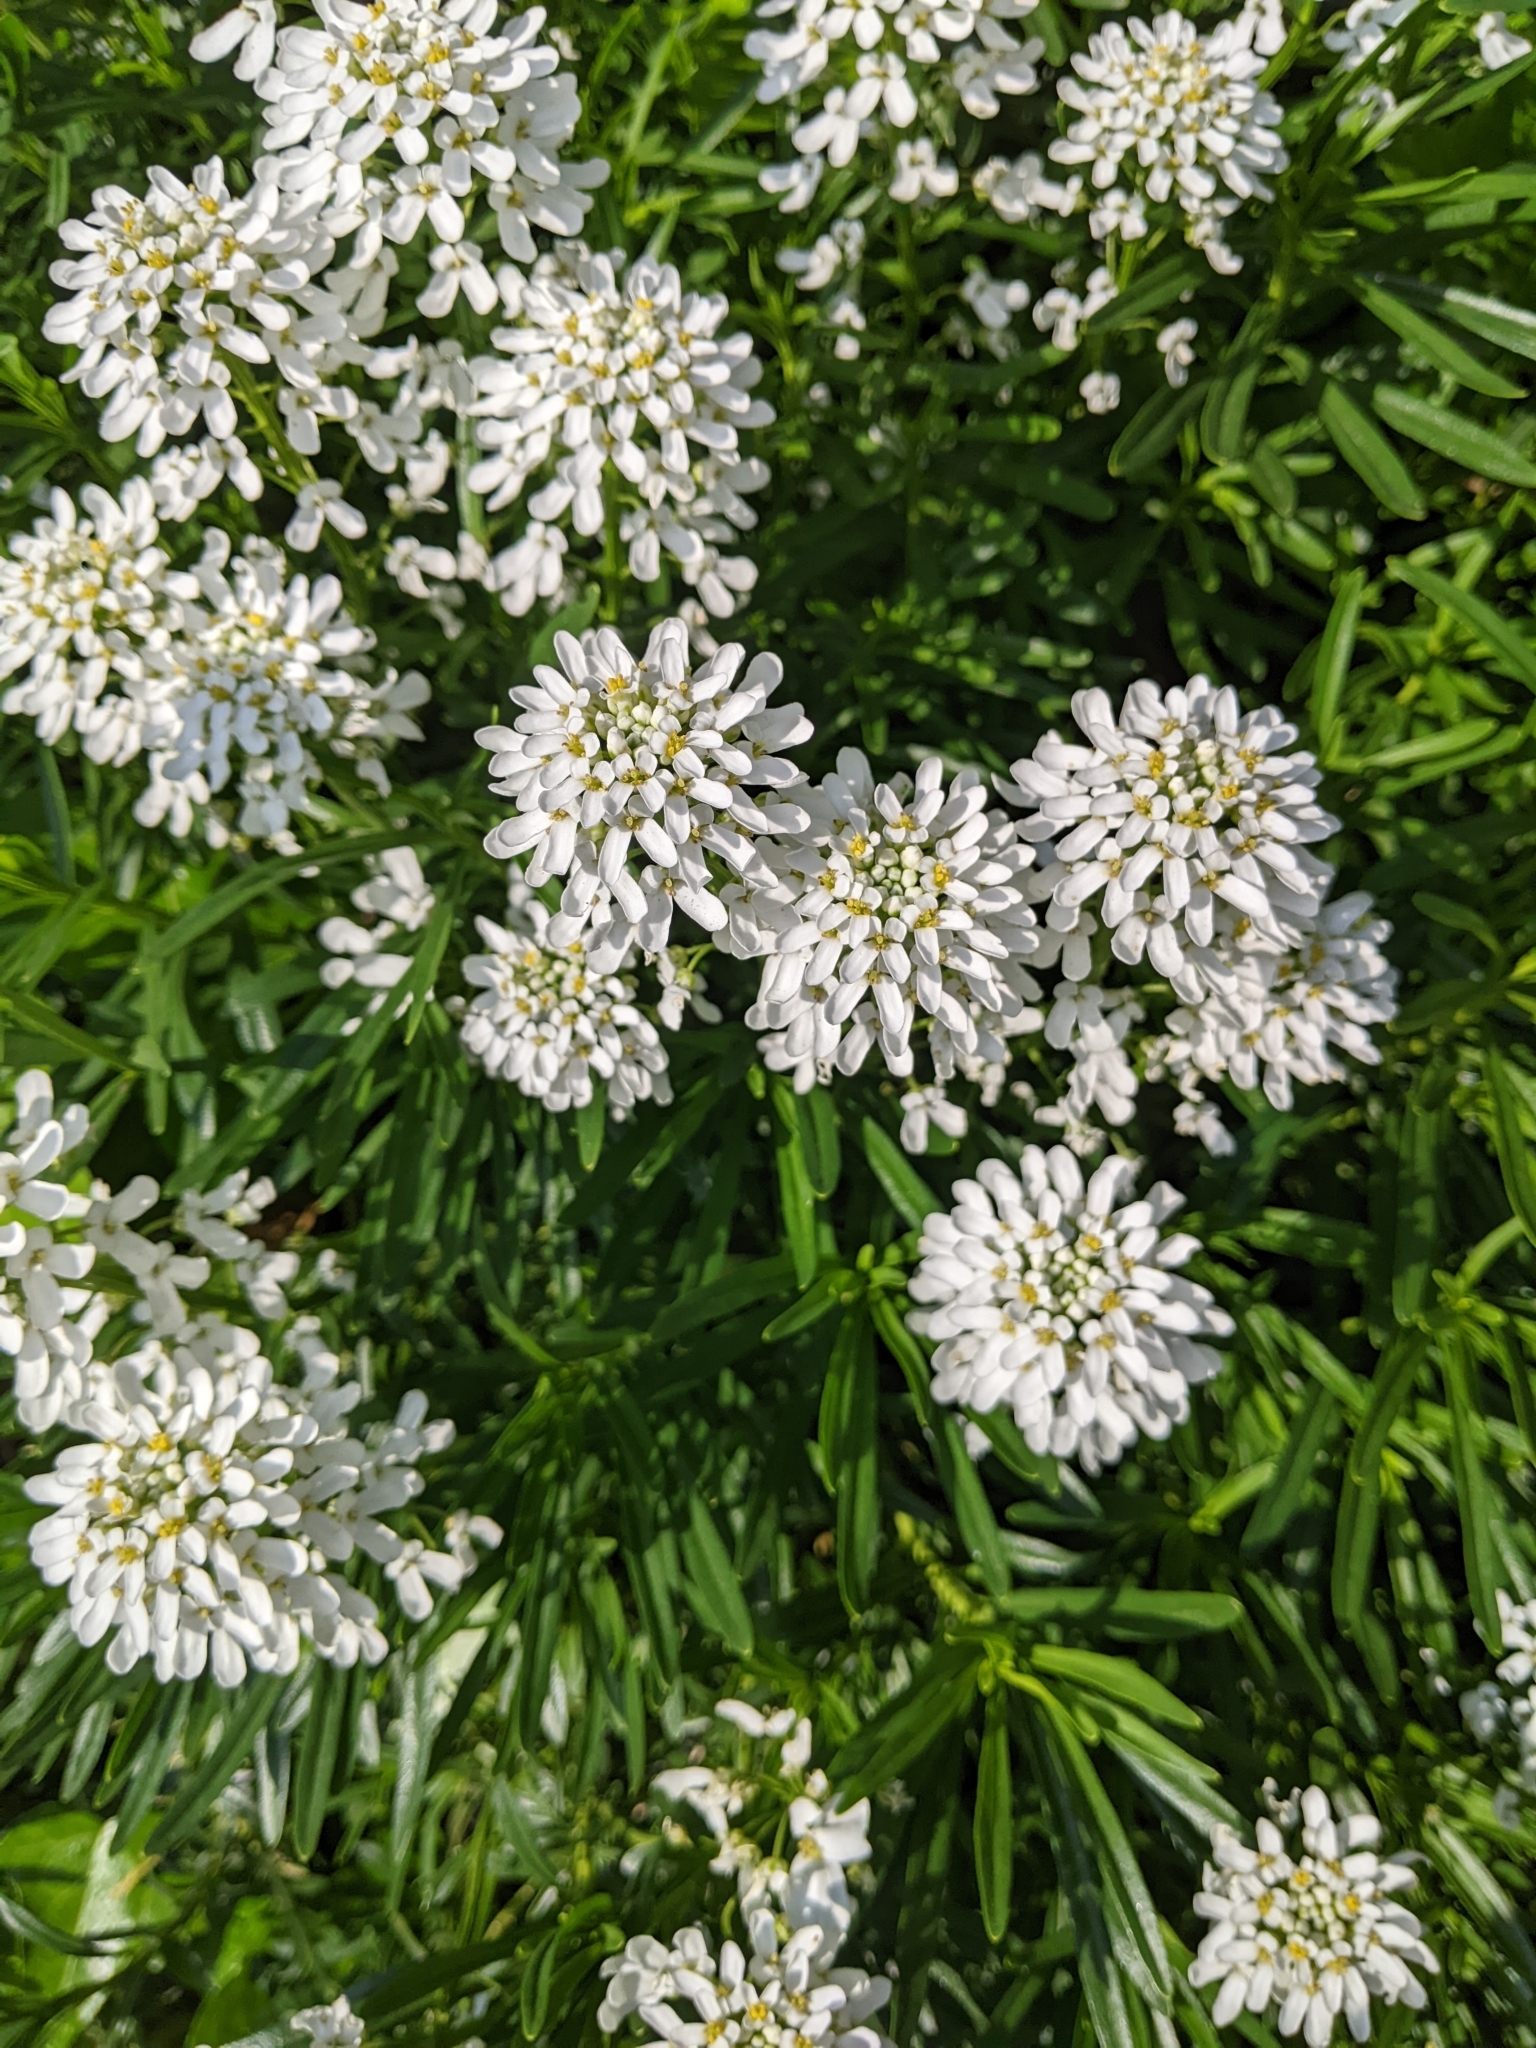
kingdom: Plantae
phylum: Tracheophyta
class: Magnoliopsida
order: Brassicales
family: Brassicaceae
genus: Iberis
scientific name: Iberis sempervirens
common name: Evergreen candytuft
